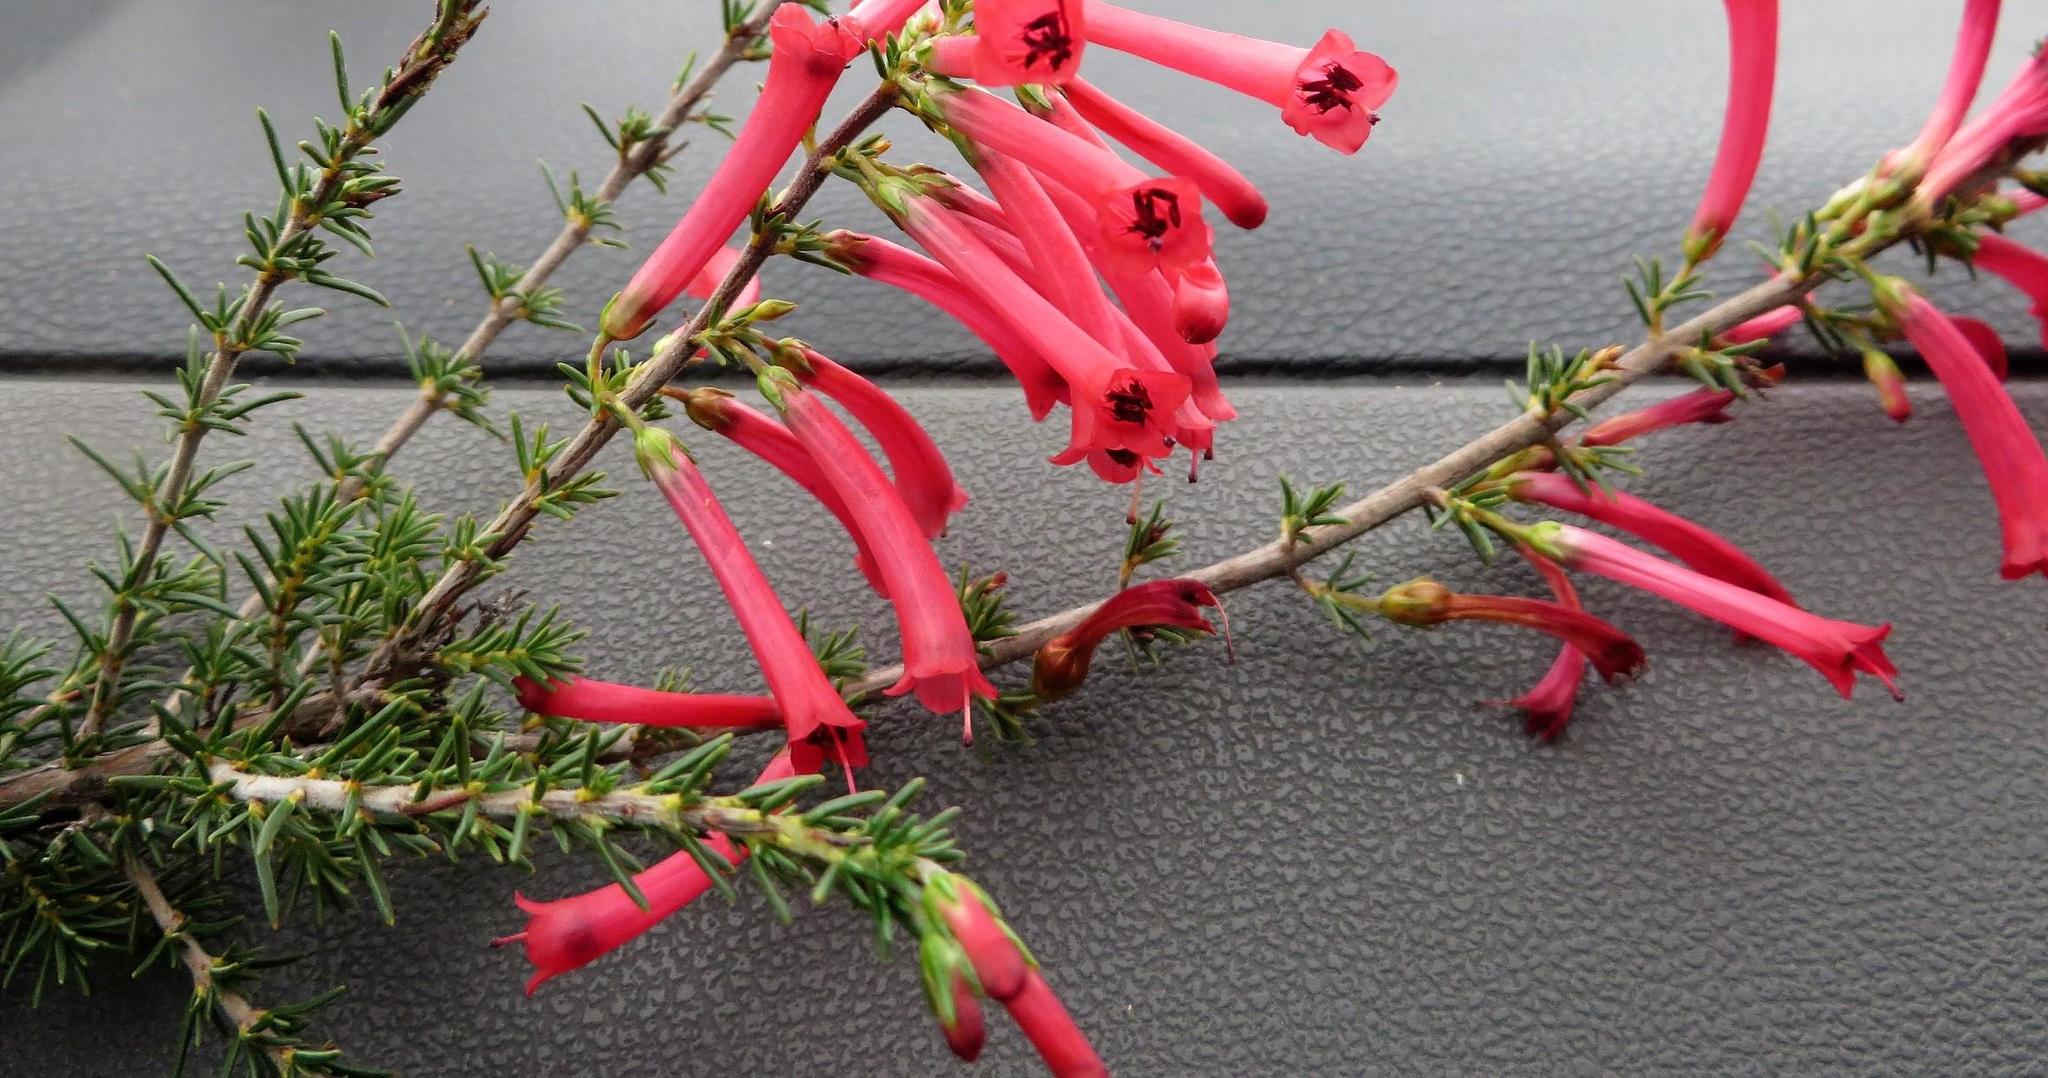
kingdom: Plantae
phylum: Tracheophyta
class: Magnoliopsida
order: Ericales
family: Ericaceae
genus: Erica
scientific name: Erica cruenta
